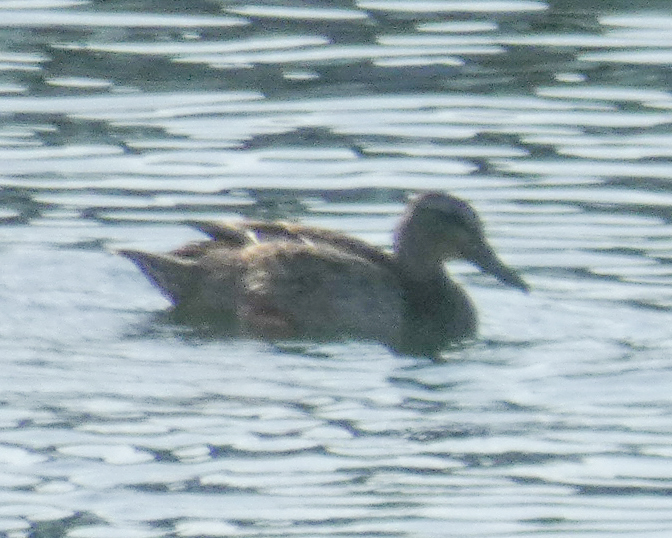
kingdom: Animalia
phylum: Chordata
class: Aves
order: Anseriformes
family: Anatidae
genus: Anas
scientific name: Anas platyrhynchos
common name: Mallard
